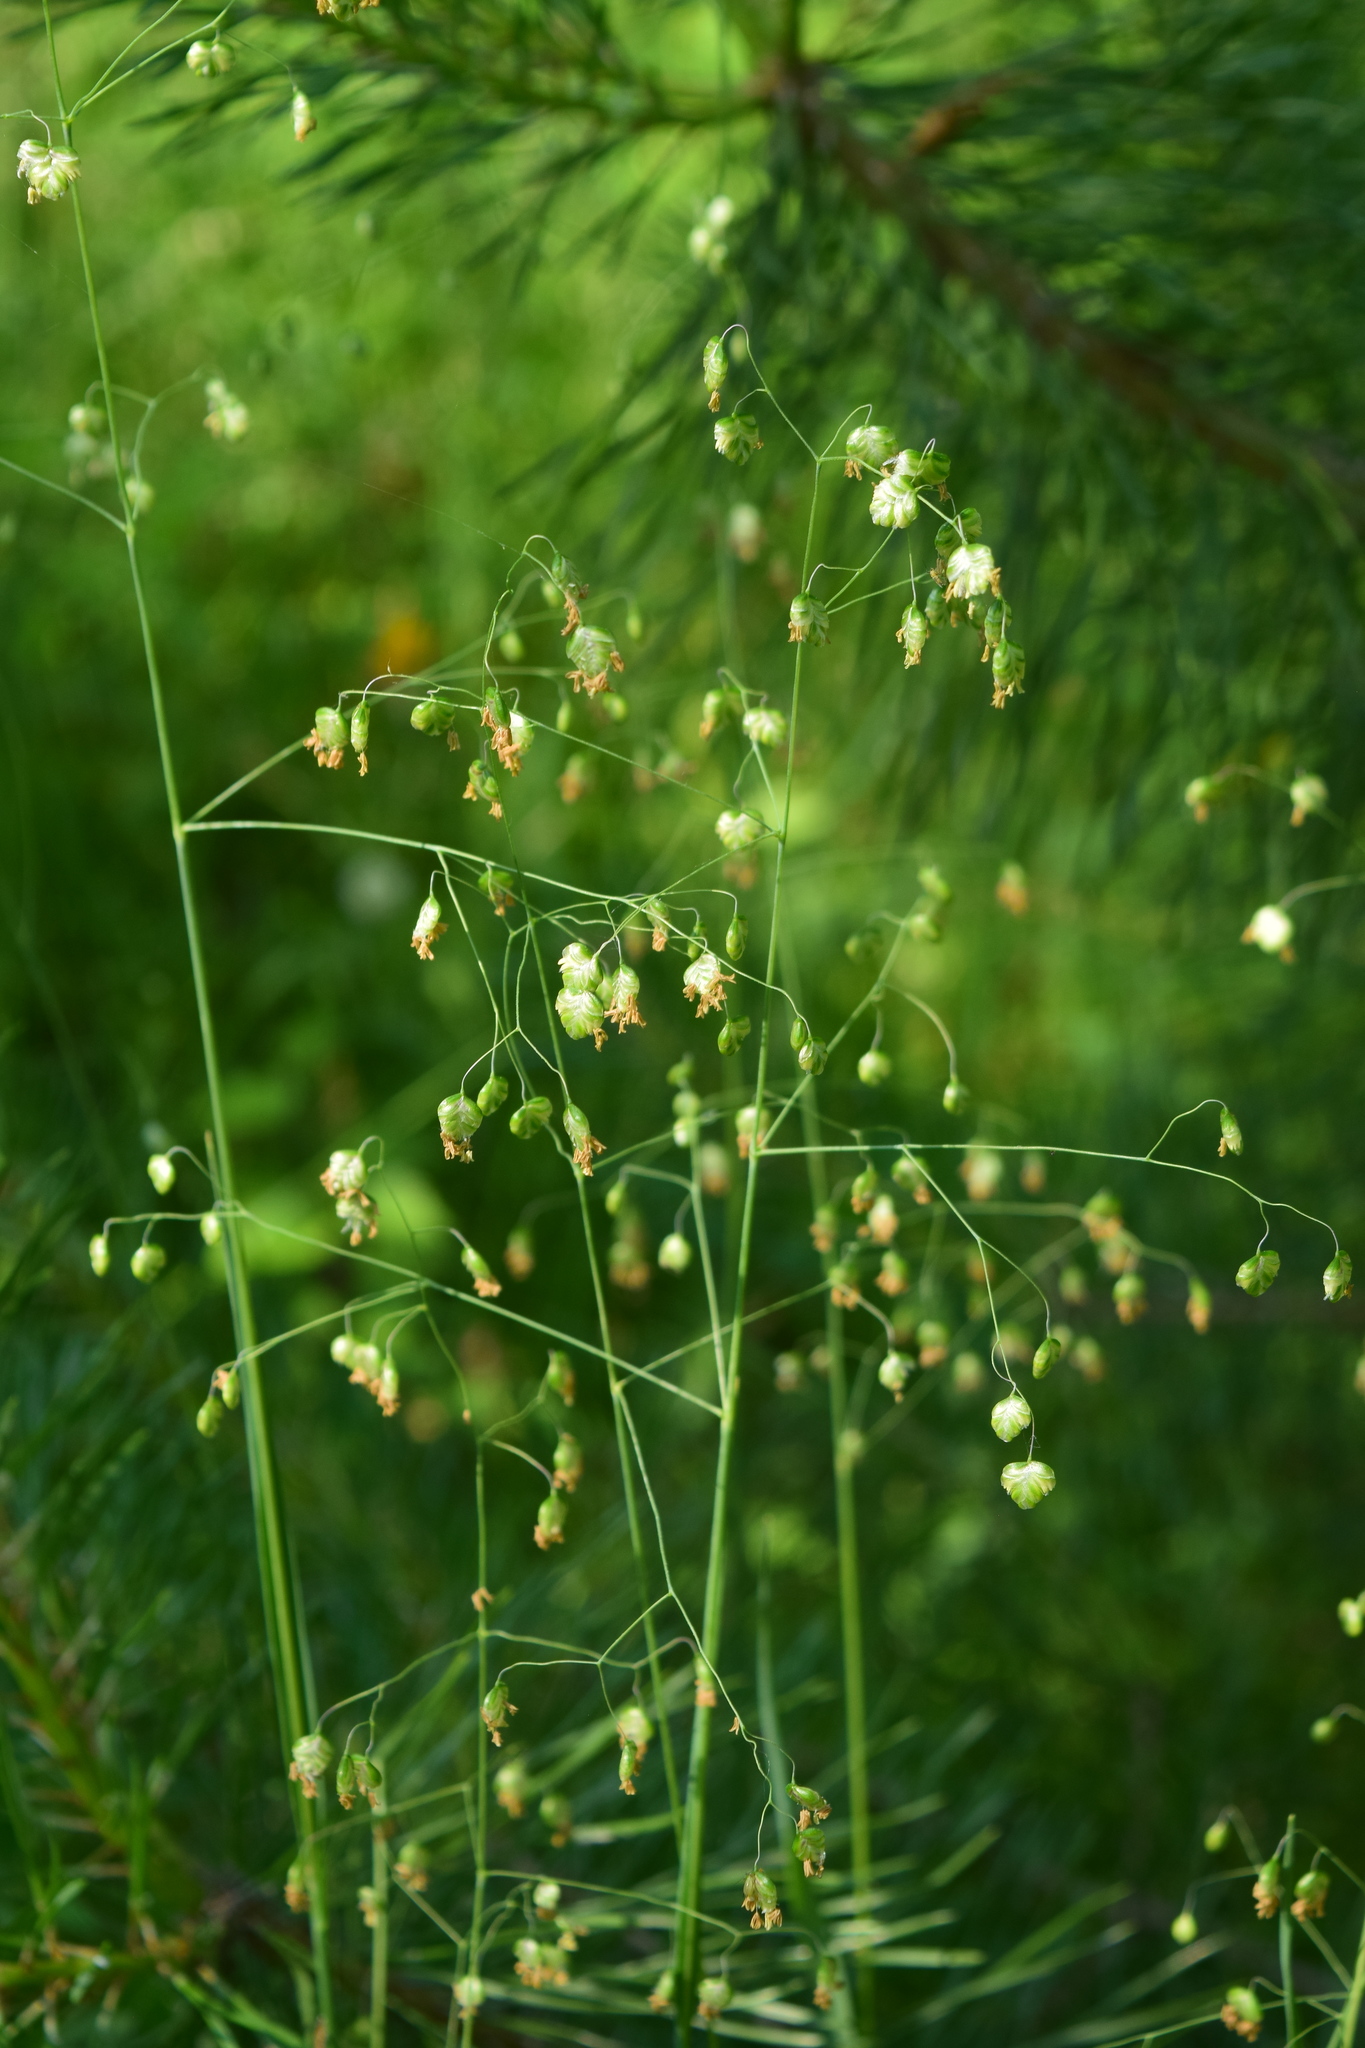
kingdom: Plantae
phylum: Tracheophyta
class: Liliopsida
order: Poales
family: Poaceae
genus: Briza
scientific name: Briza media
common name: Quaking grass
